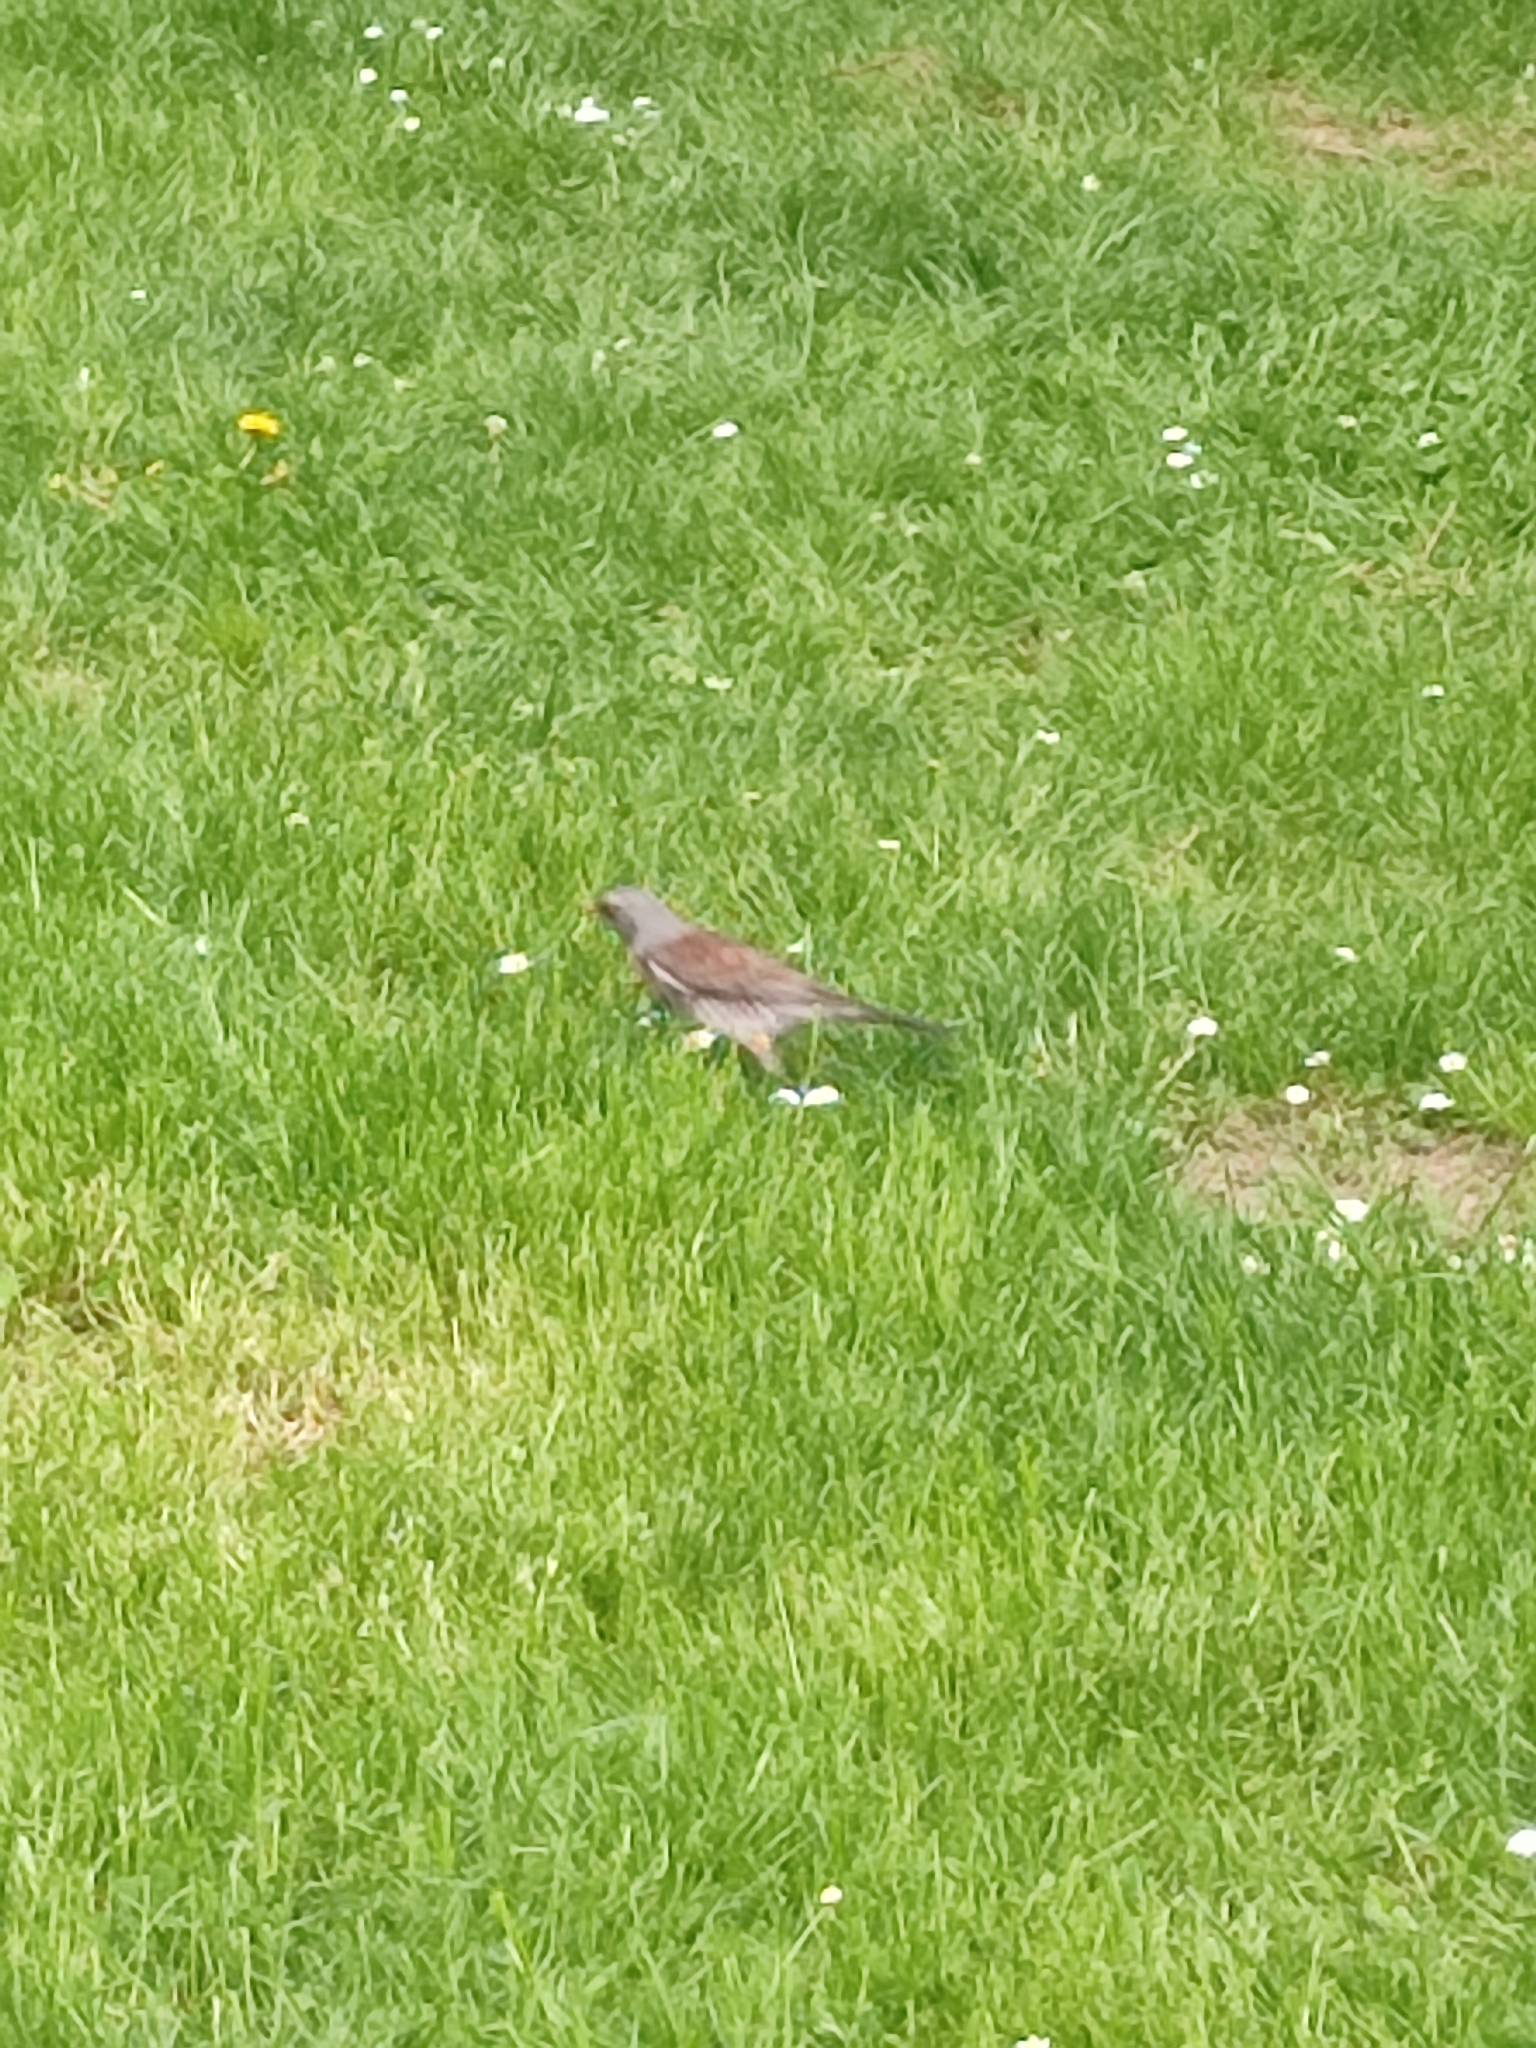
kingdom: Animalia
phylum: Chordata
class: Aves
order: Passeriformes
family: Turdidae
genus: Turdus
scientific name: Turdus pilaris
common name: Fieldfare
